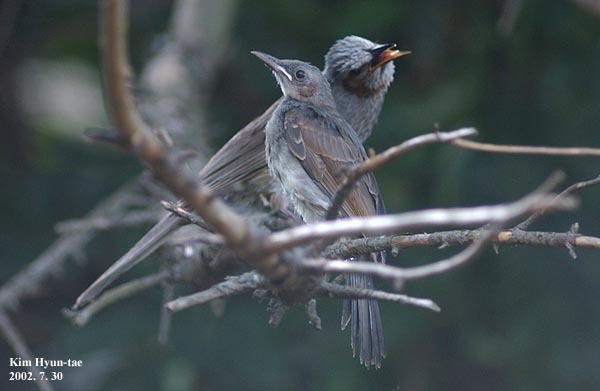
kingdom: Animalia
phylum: Chordata
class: Aves
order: Passeriformes
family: Pycnonotidae
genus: Hypsipetes
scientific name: Hypsipetes amaurotis
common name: Brown-eared bulbul
